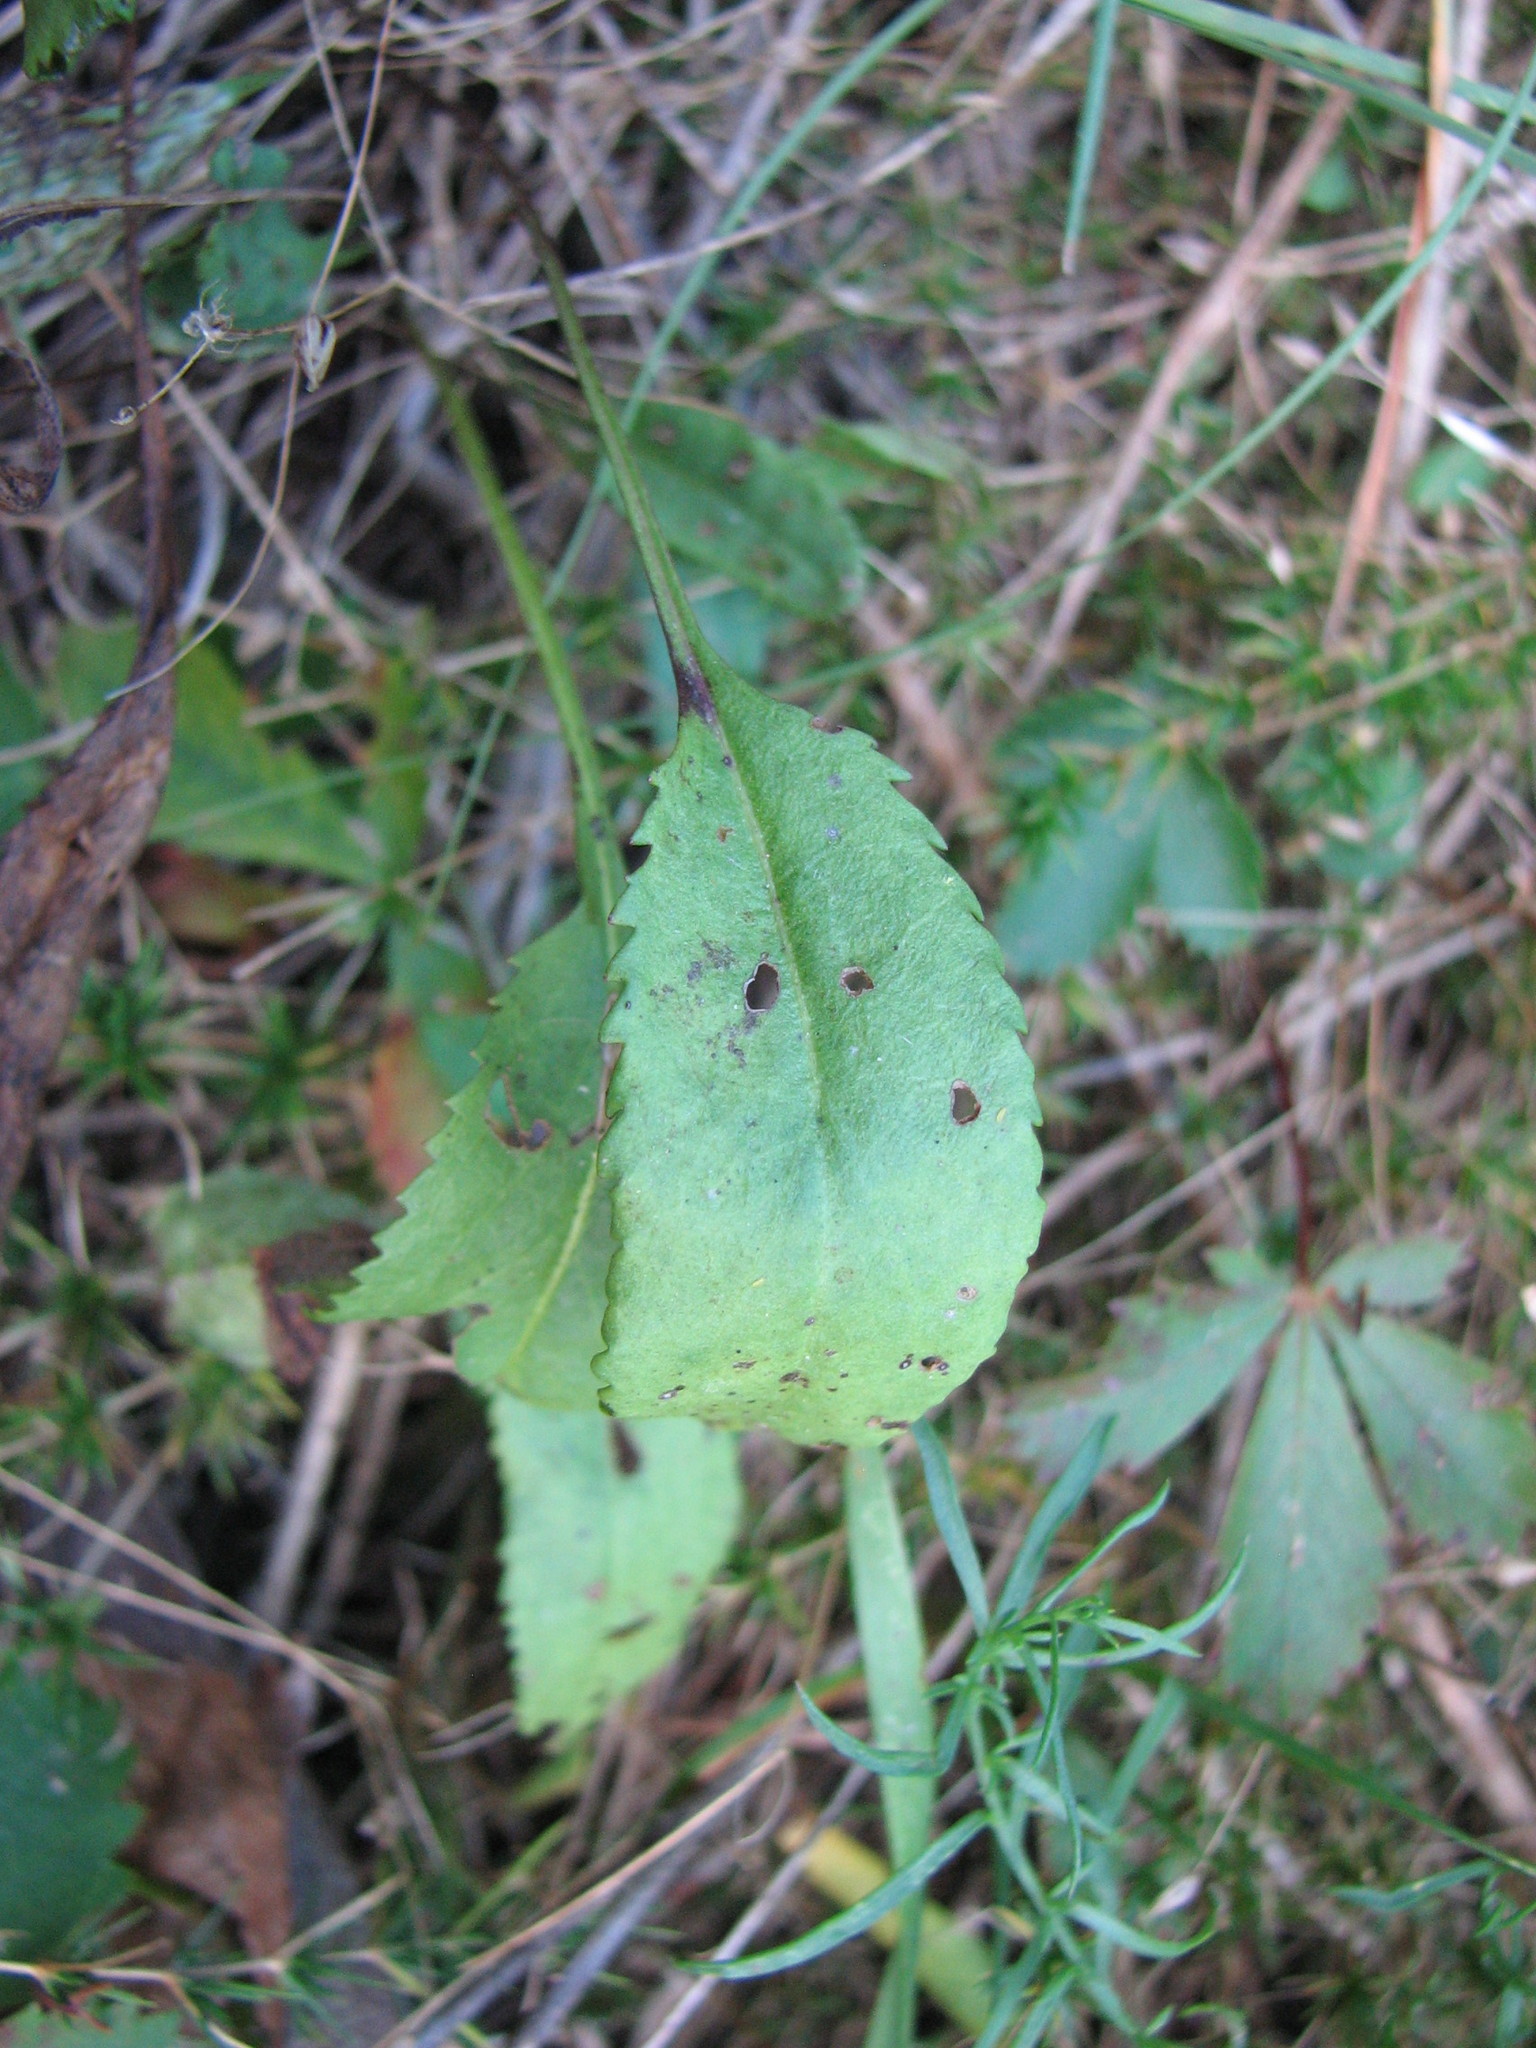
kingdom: Plantae
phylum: Tracheophyta
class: Magnoliopsida
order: Asterales
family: Asteraceae
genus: Packera
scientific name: Packera anonyma
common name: Small ragwort
